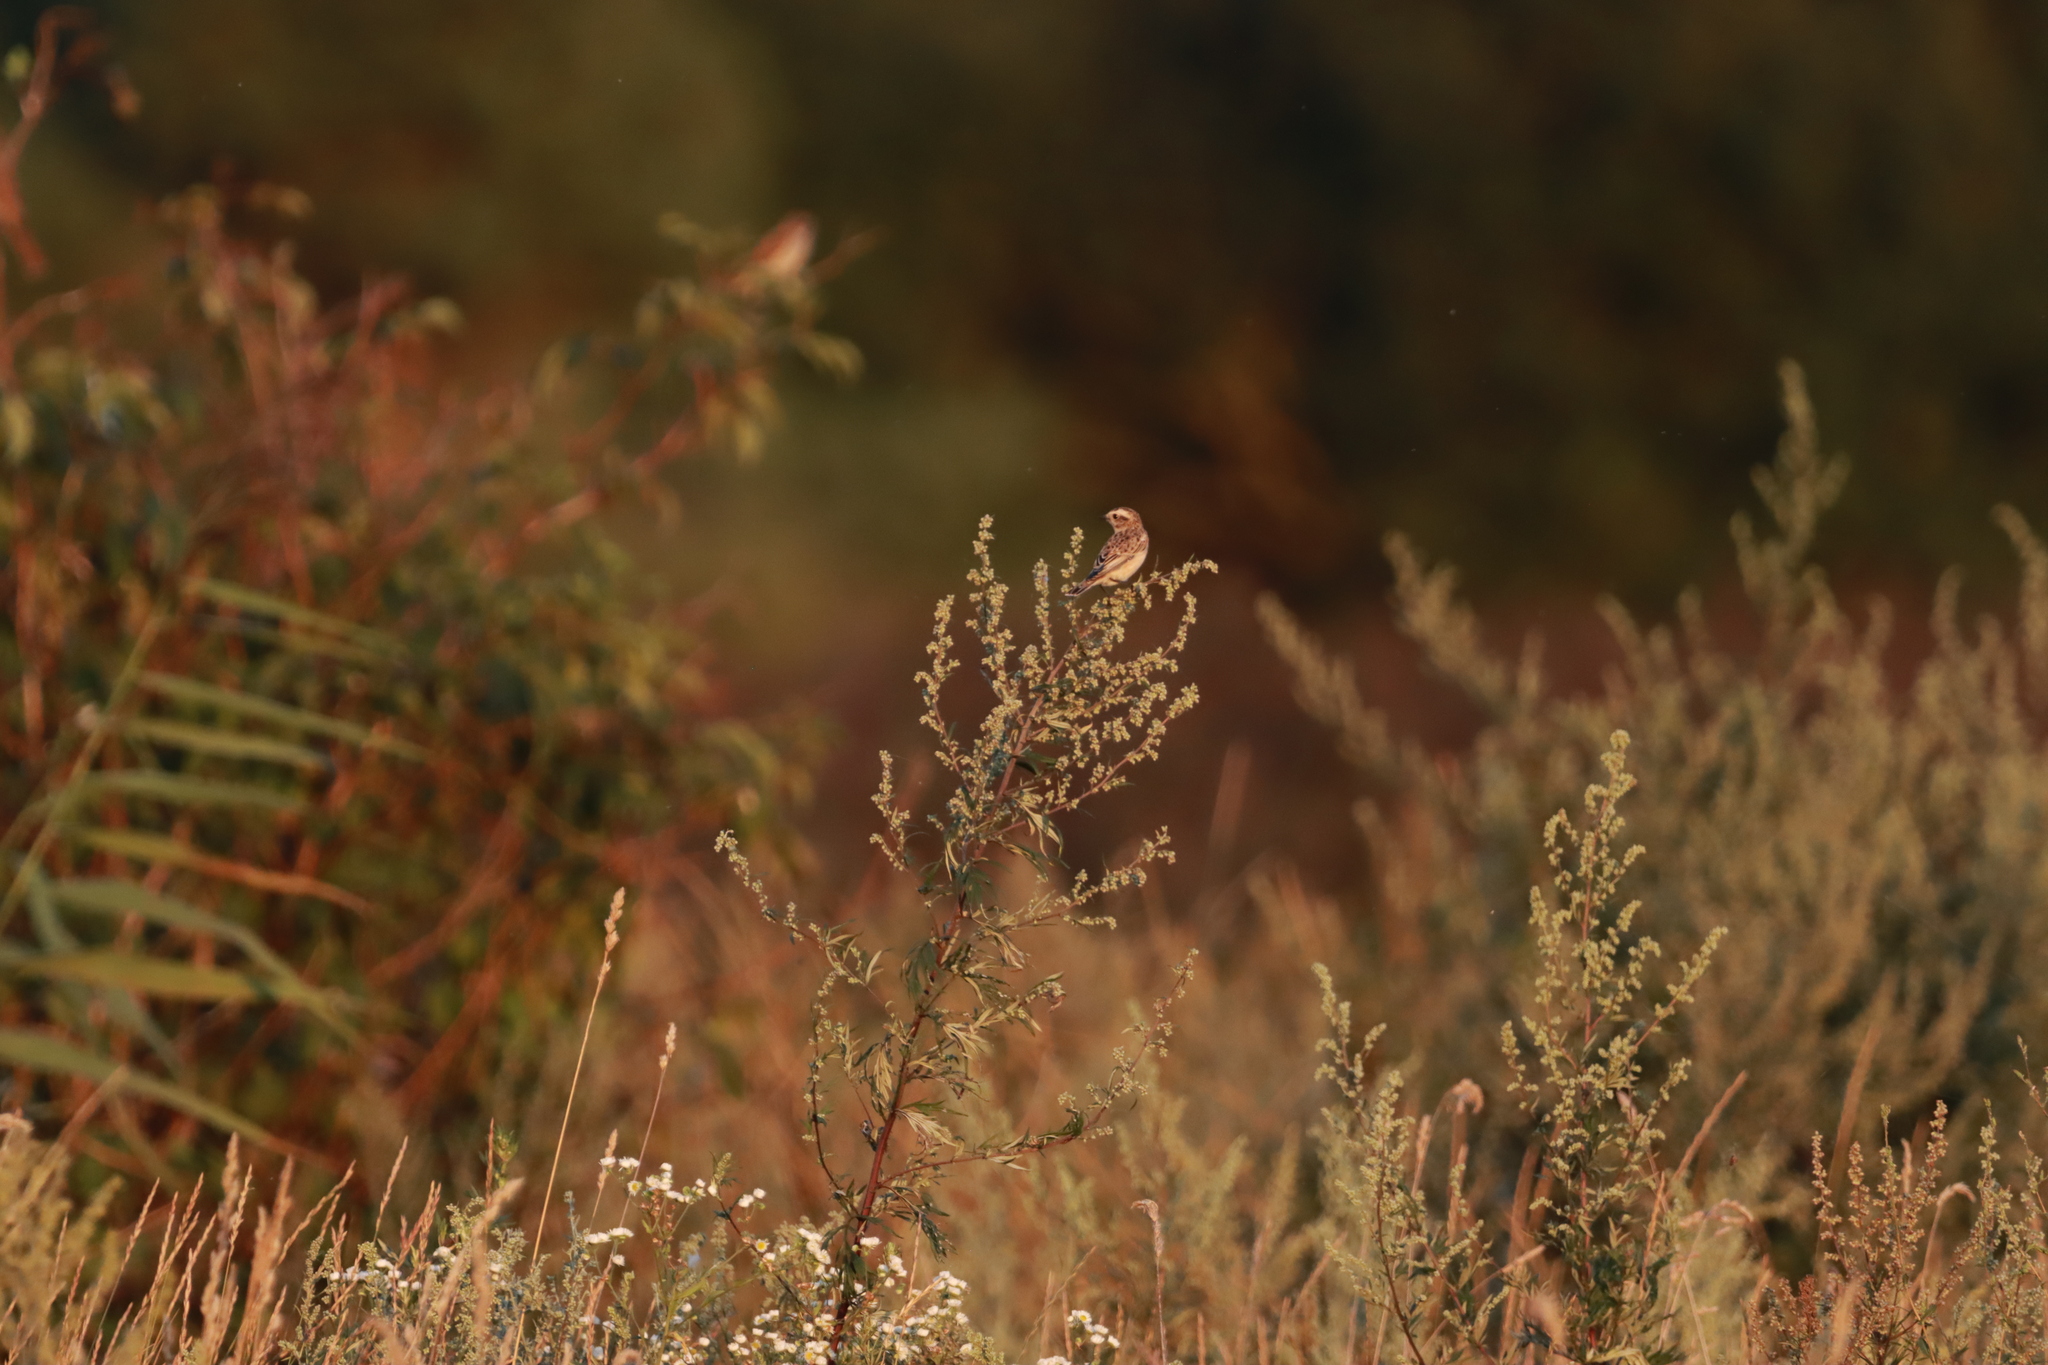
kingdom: Animalia
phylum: Chordata
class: Aves
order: Passeriformes
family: Muscicapidae
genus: Saxicola
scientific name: Saxicola rubetra
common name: Whinchat
